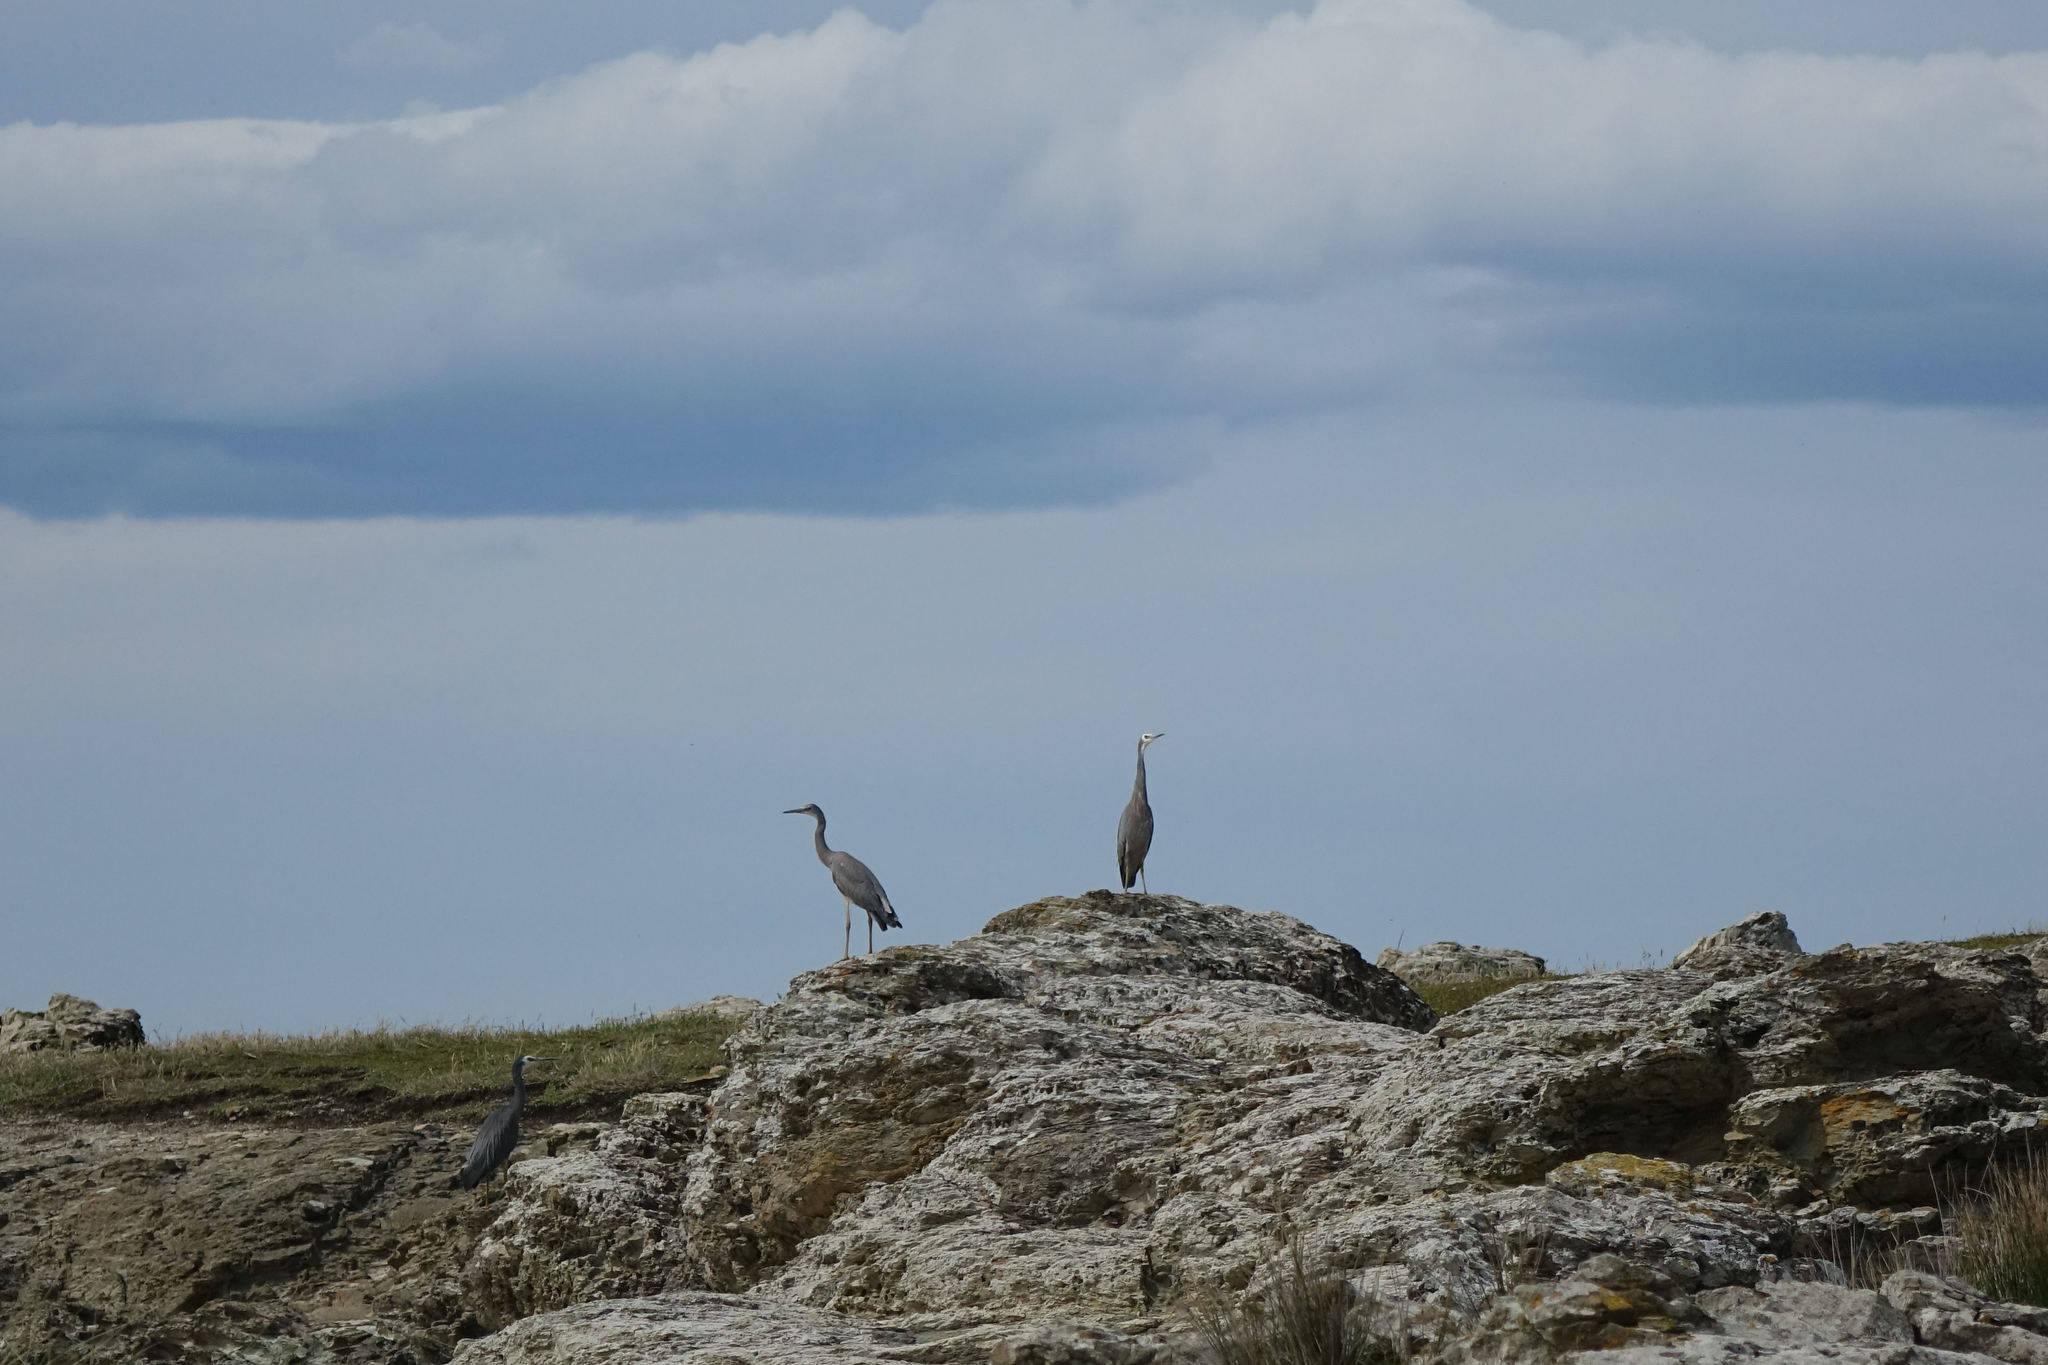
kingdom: Animalia
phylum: Chordata
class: Aves
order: Pelecaniformes
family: Ardeidae
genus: Egretta
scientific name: Egretta novaehollandiae
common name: White-faced heron
